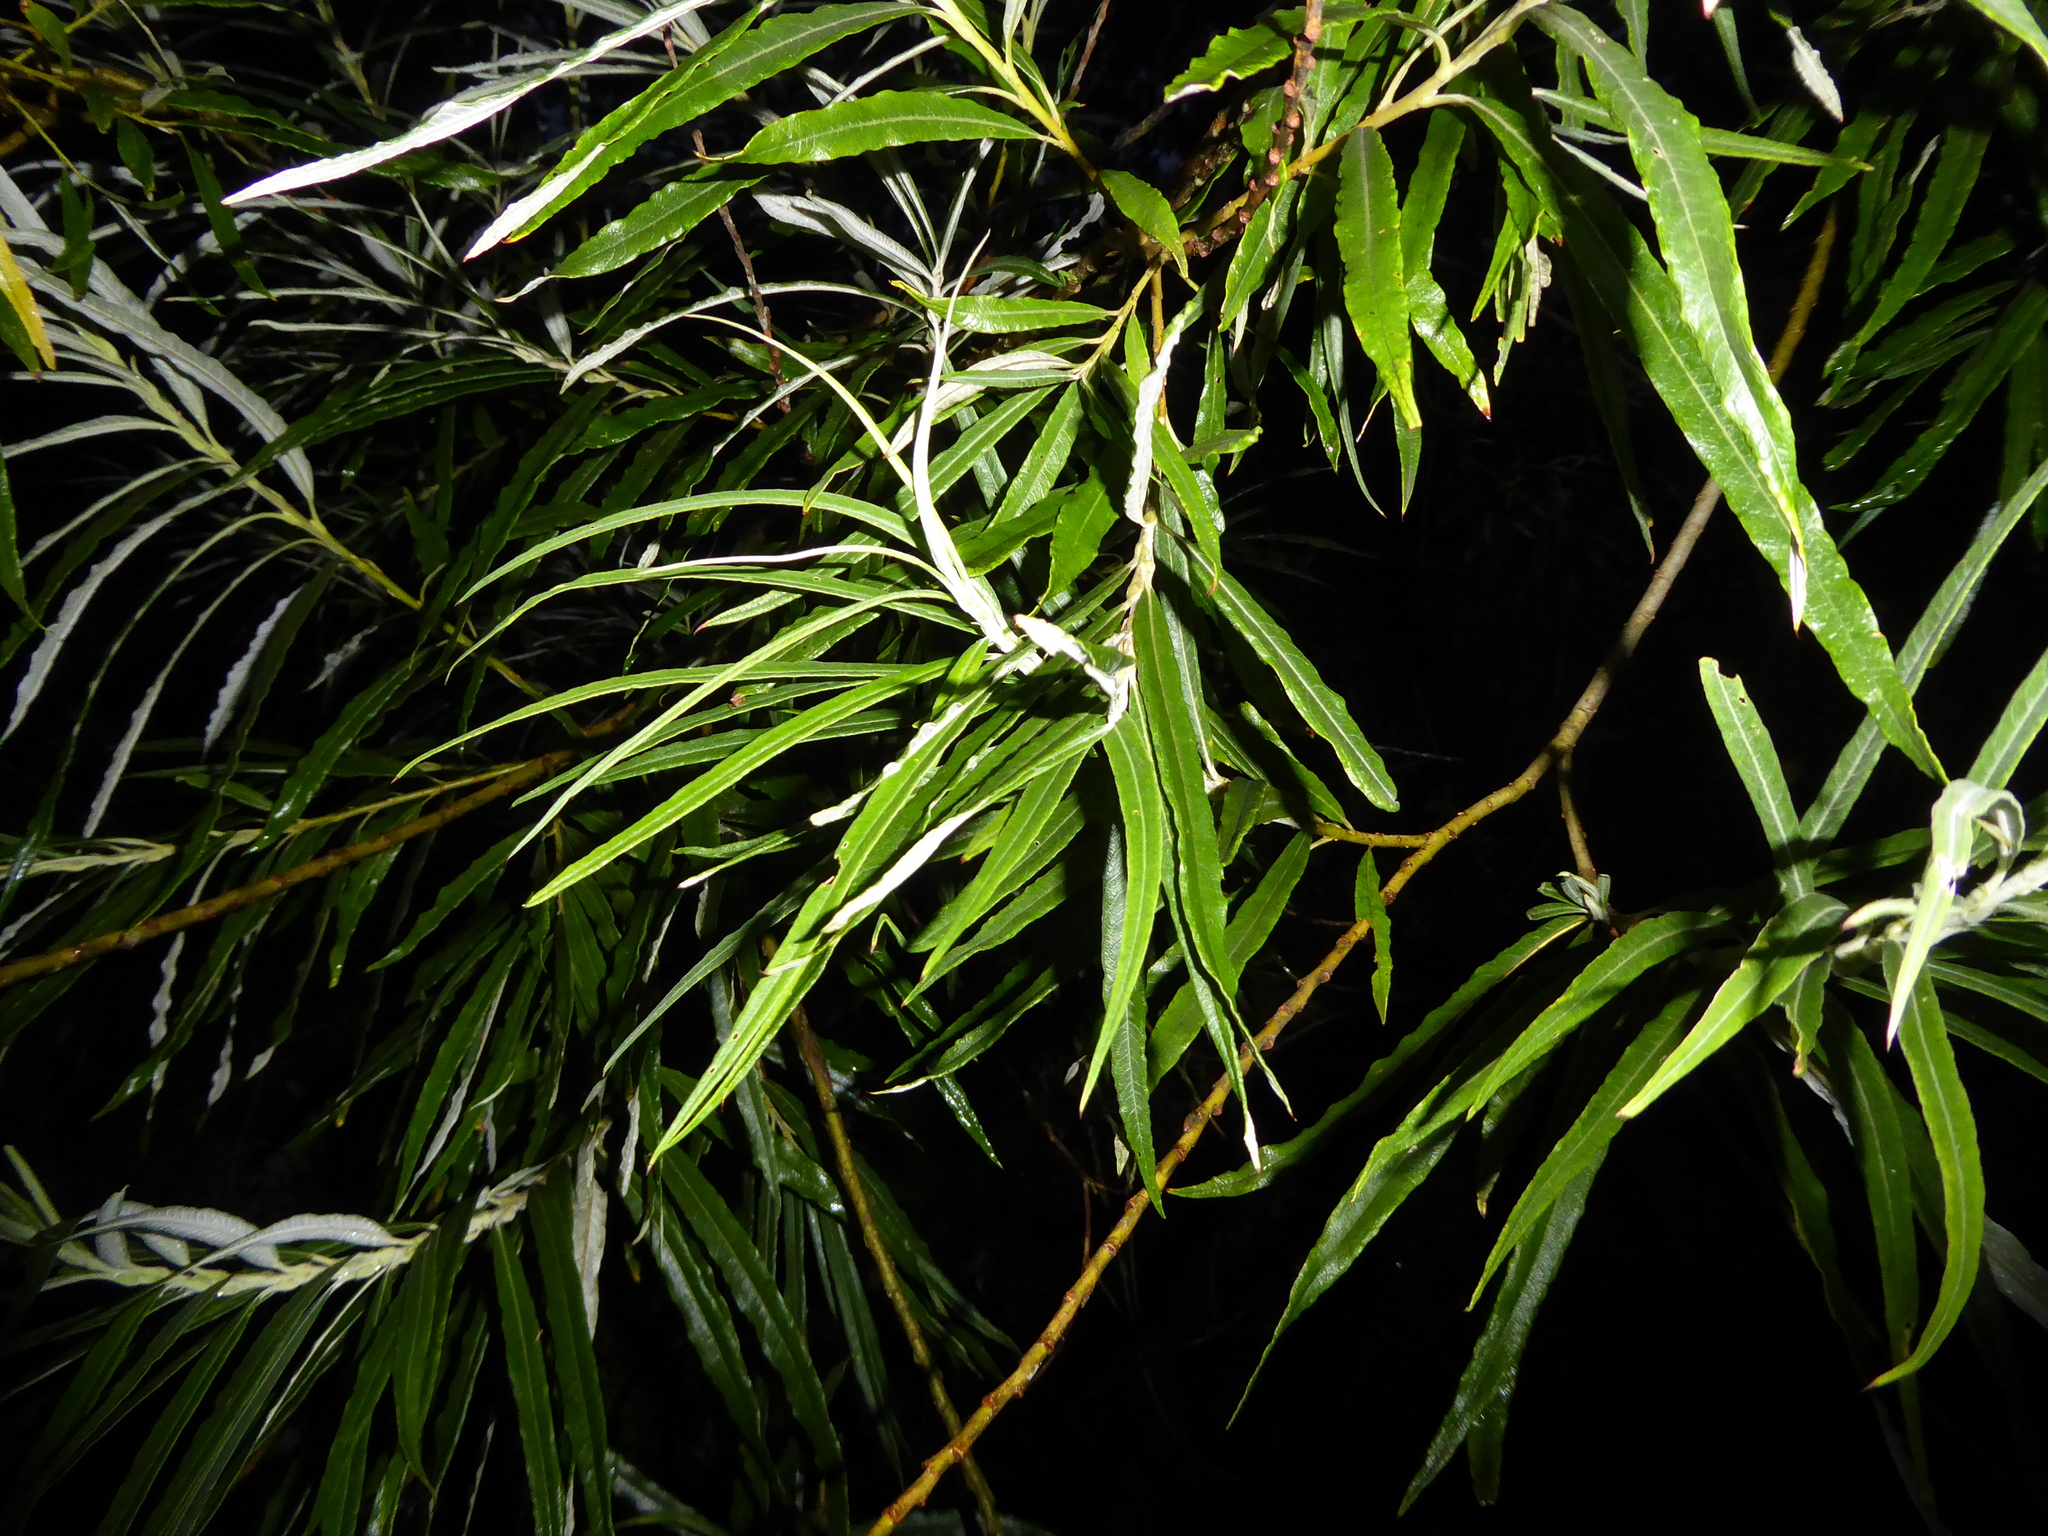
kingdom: Plantae
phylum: Tracheophyta
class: Magnoliopsida
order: Malpighiales
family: Salicaceae
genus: Salix
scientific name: Salix viminalis
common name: Osier
